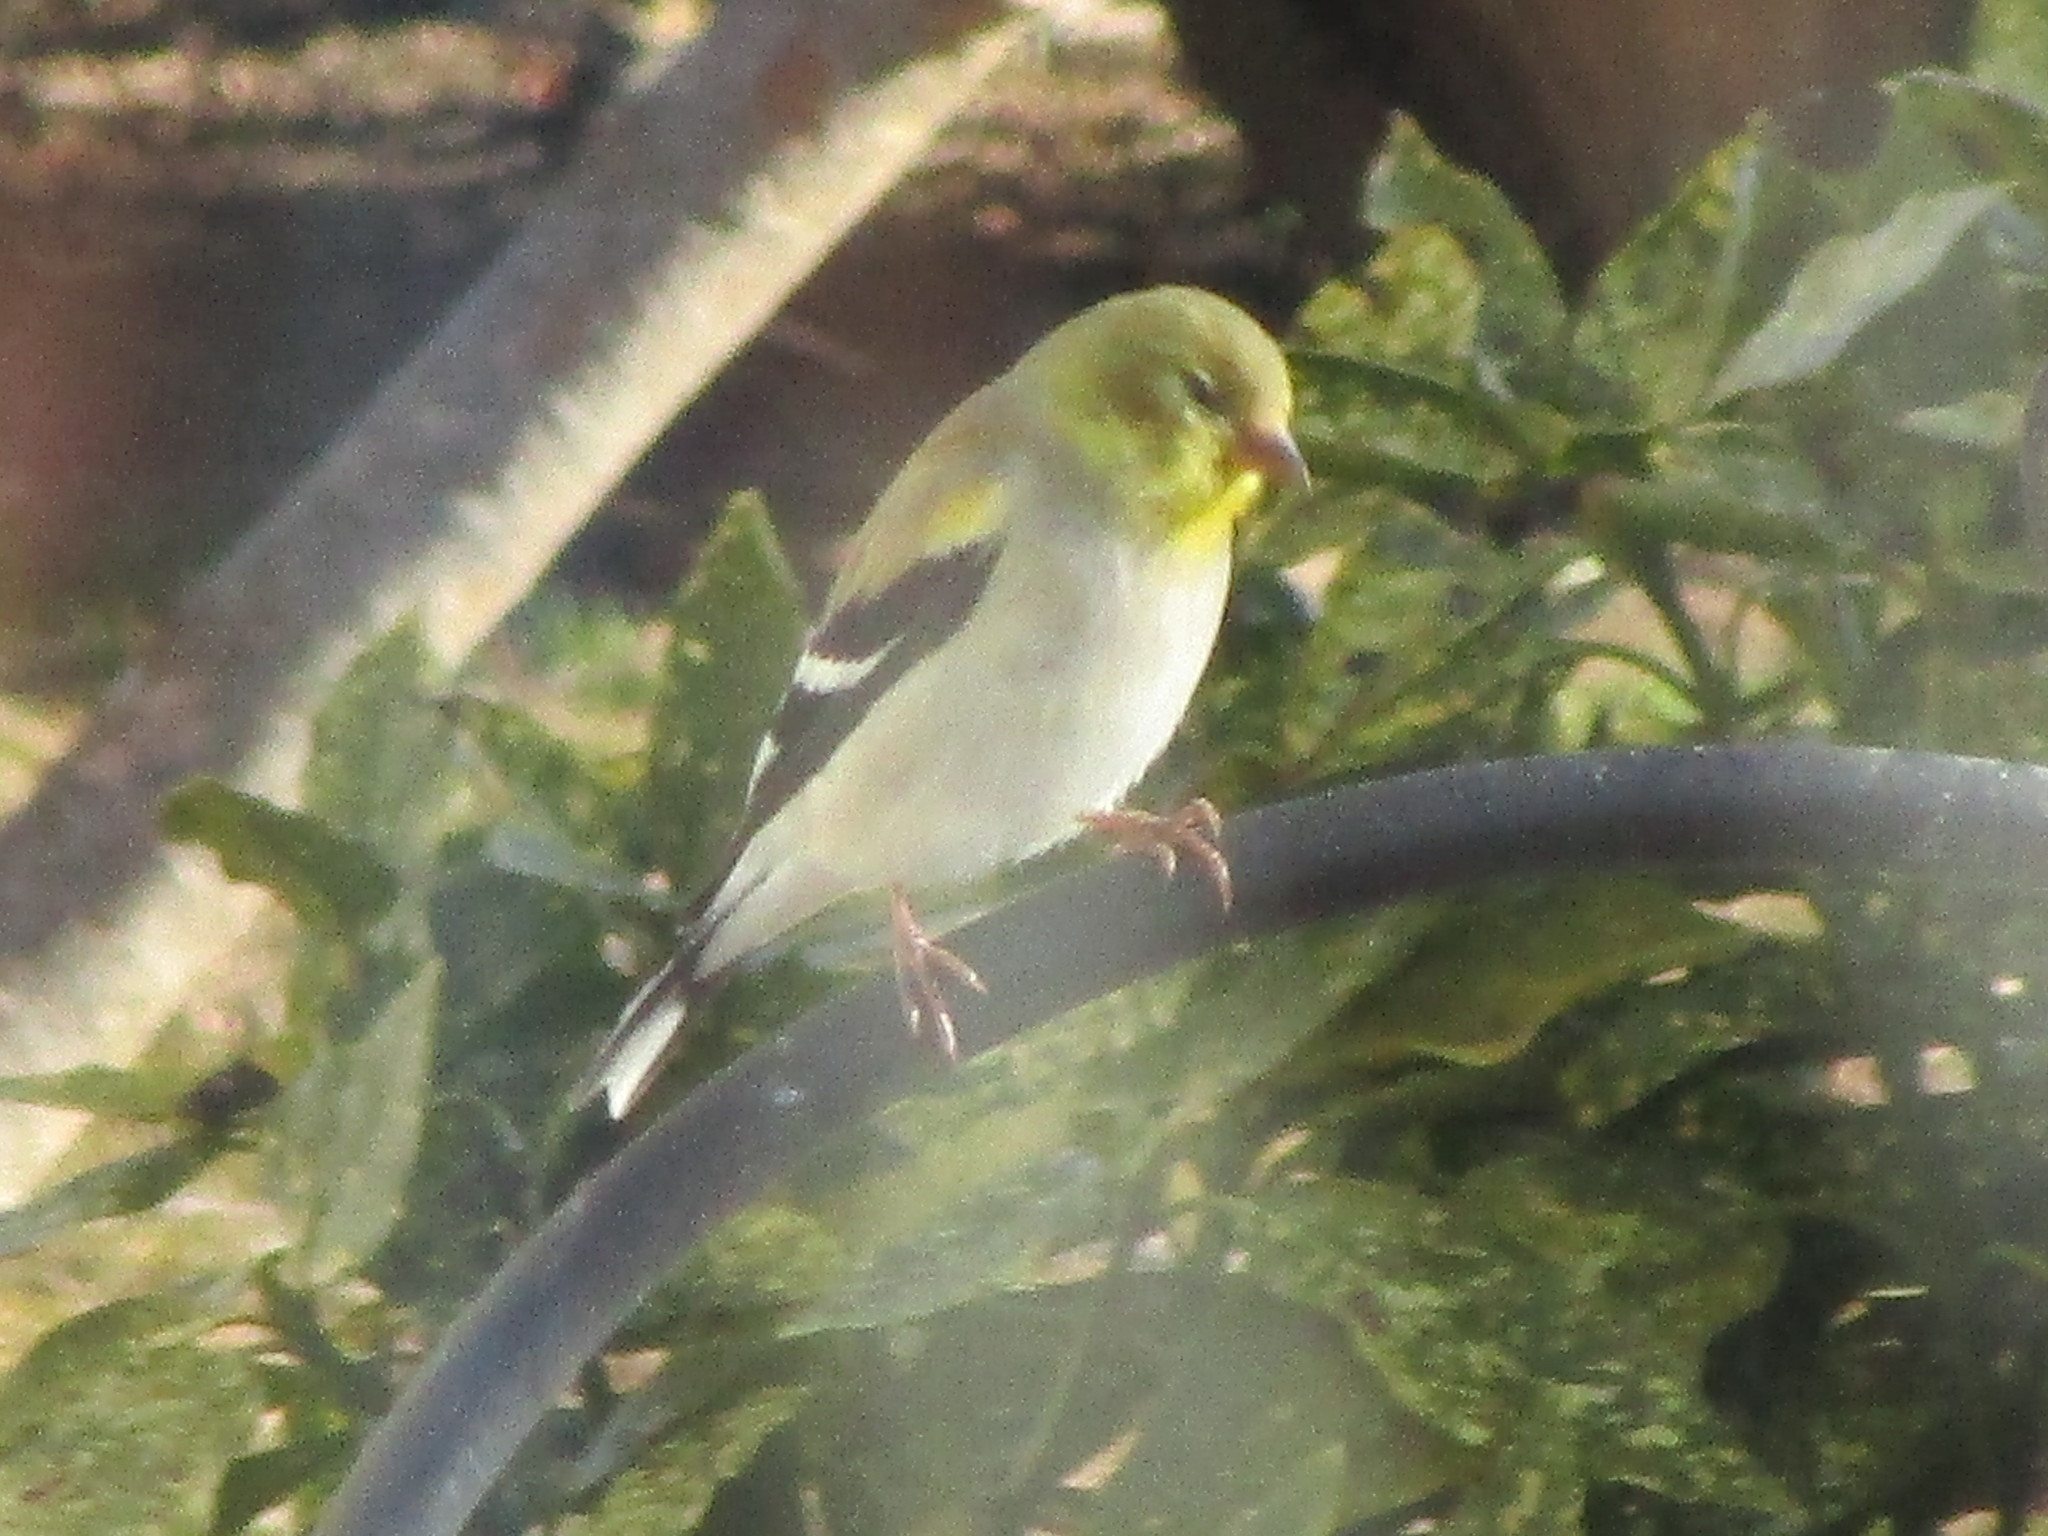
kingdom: Animalia
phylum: Chordata
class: Aves
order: Passeriformes
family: Fringillidae
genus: Spinus
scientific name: Spinus tristis
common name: American goldfinch
